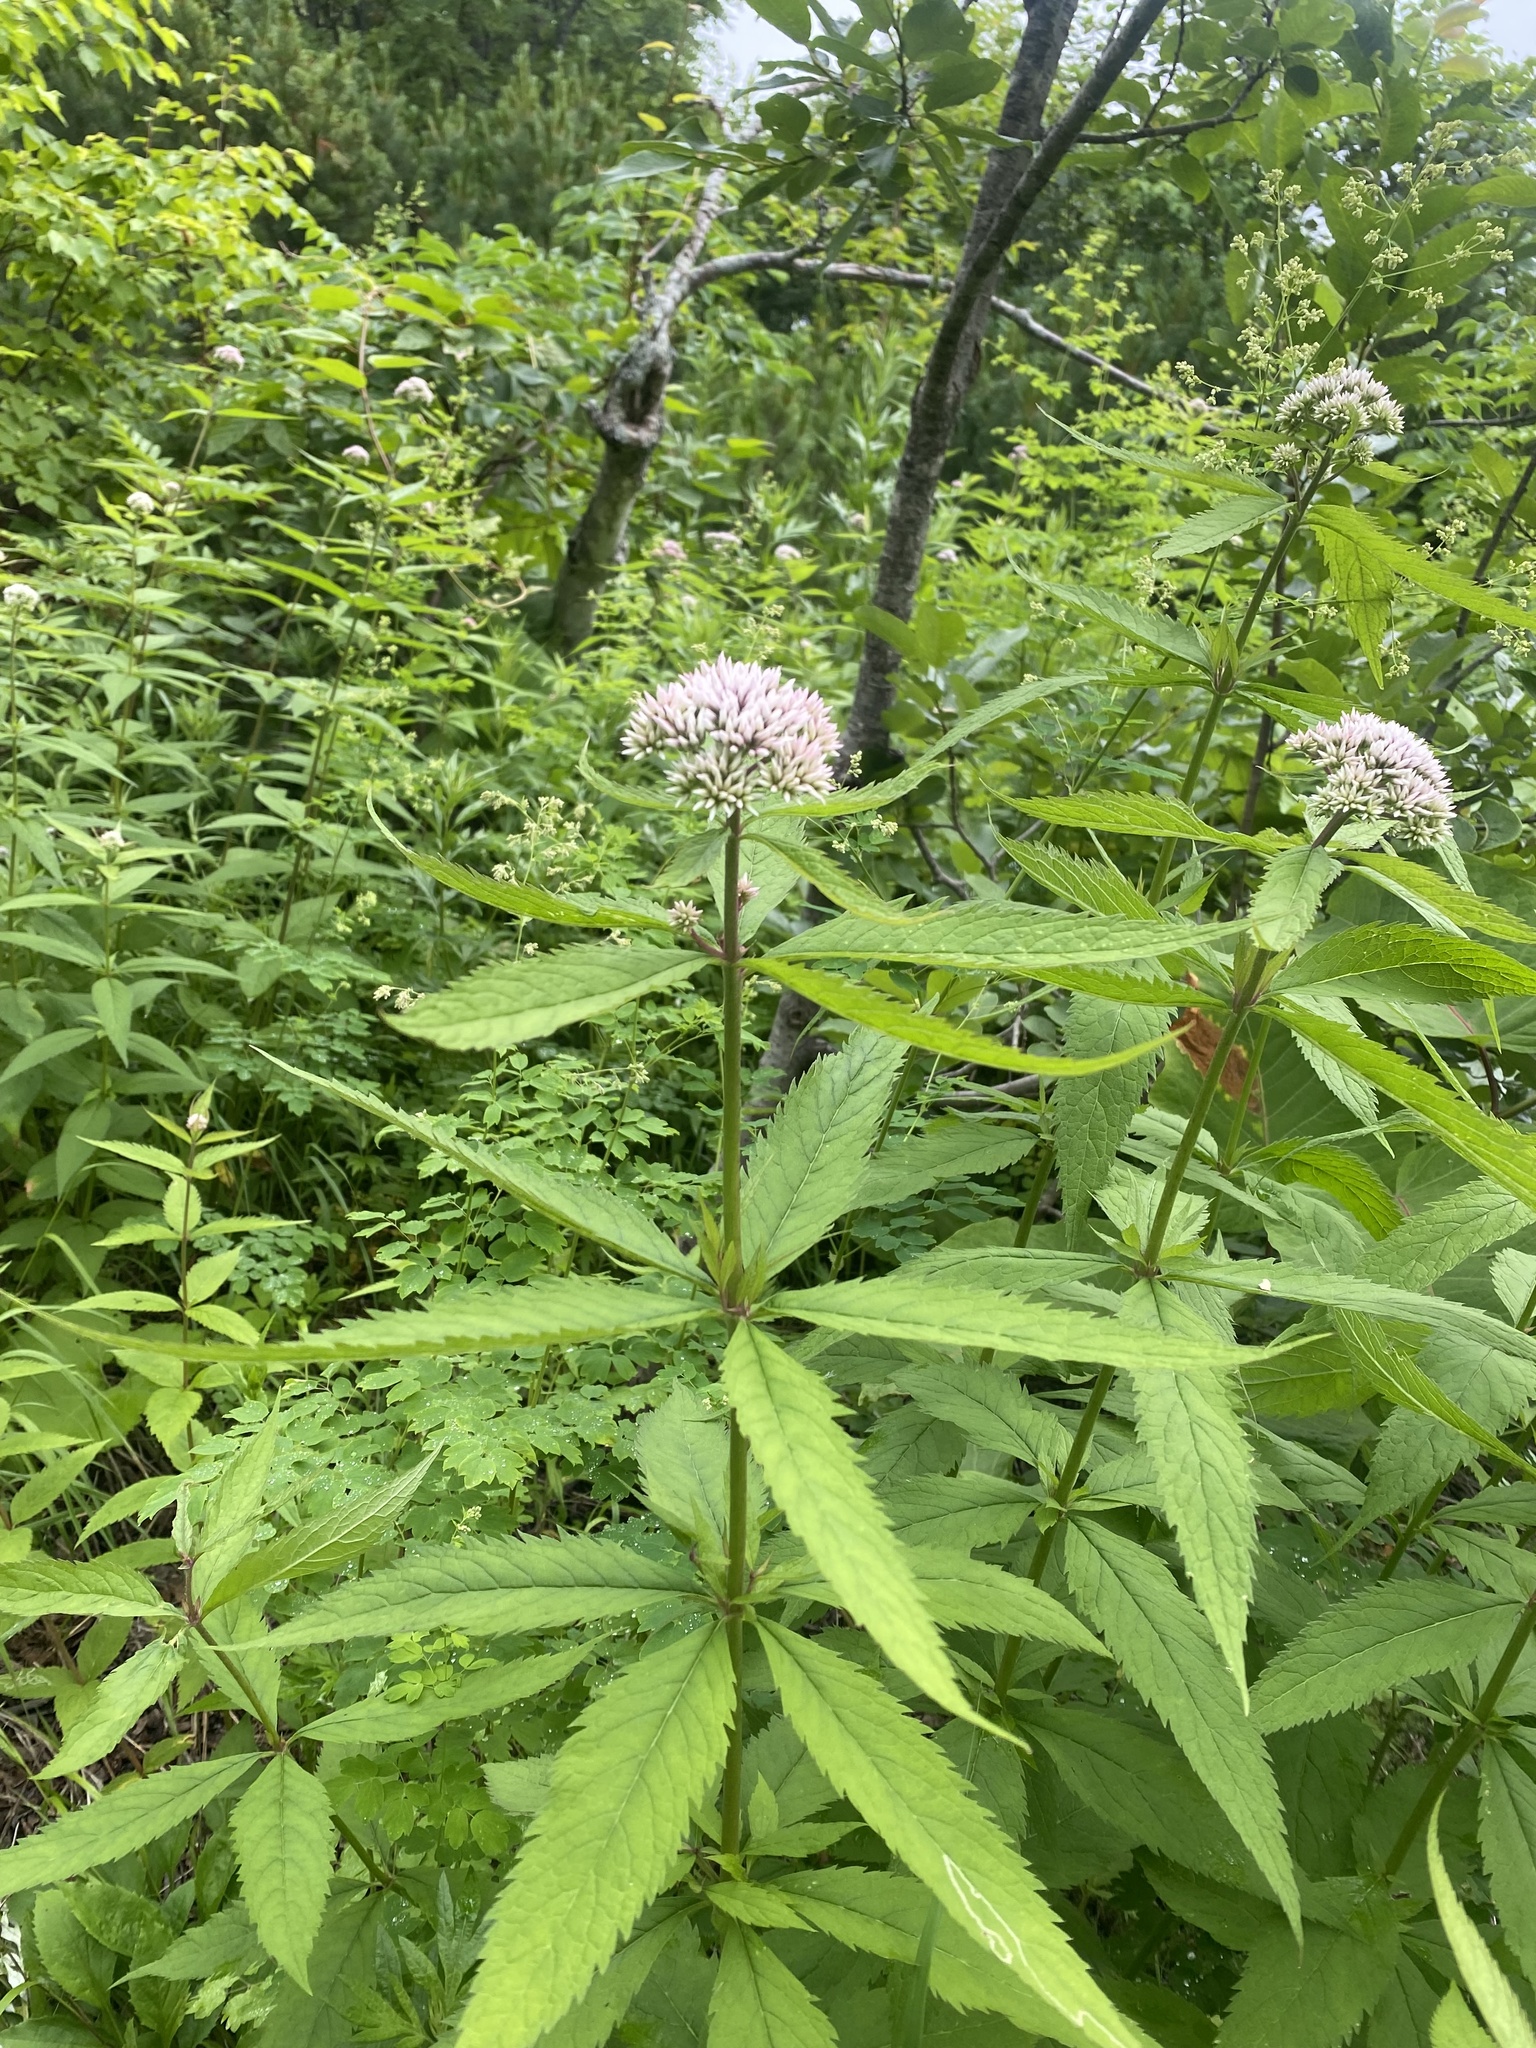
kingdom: Plantae
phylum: Tracheophyta
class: Magnoliopsida
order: Asterales
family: Asteraceae
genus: Eupatorium
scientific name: Eupatorium glehnii
